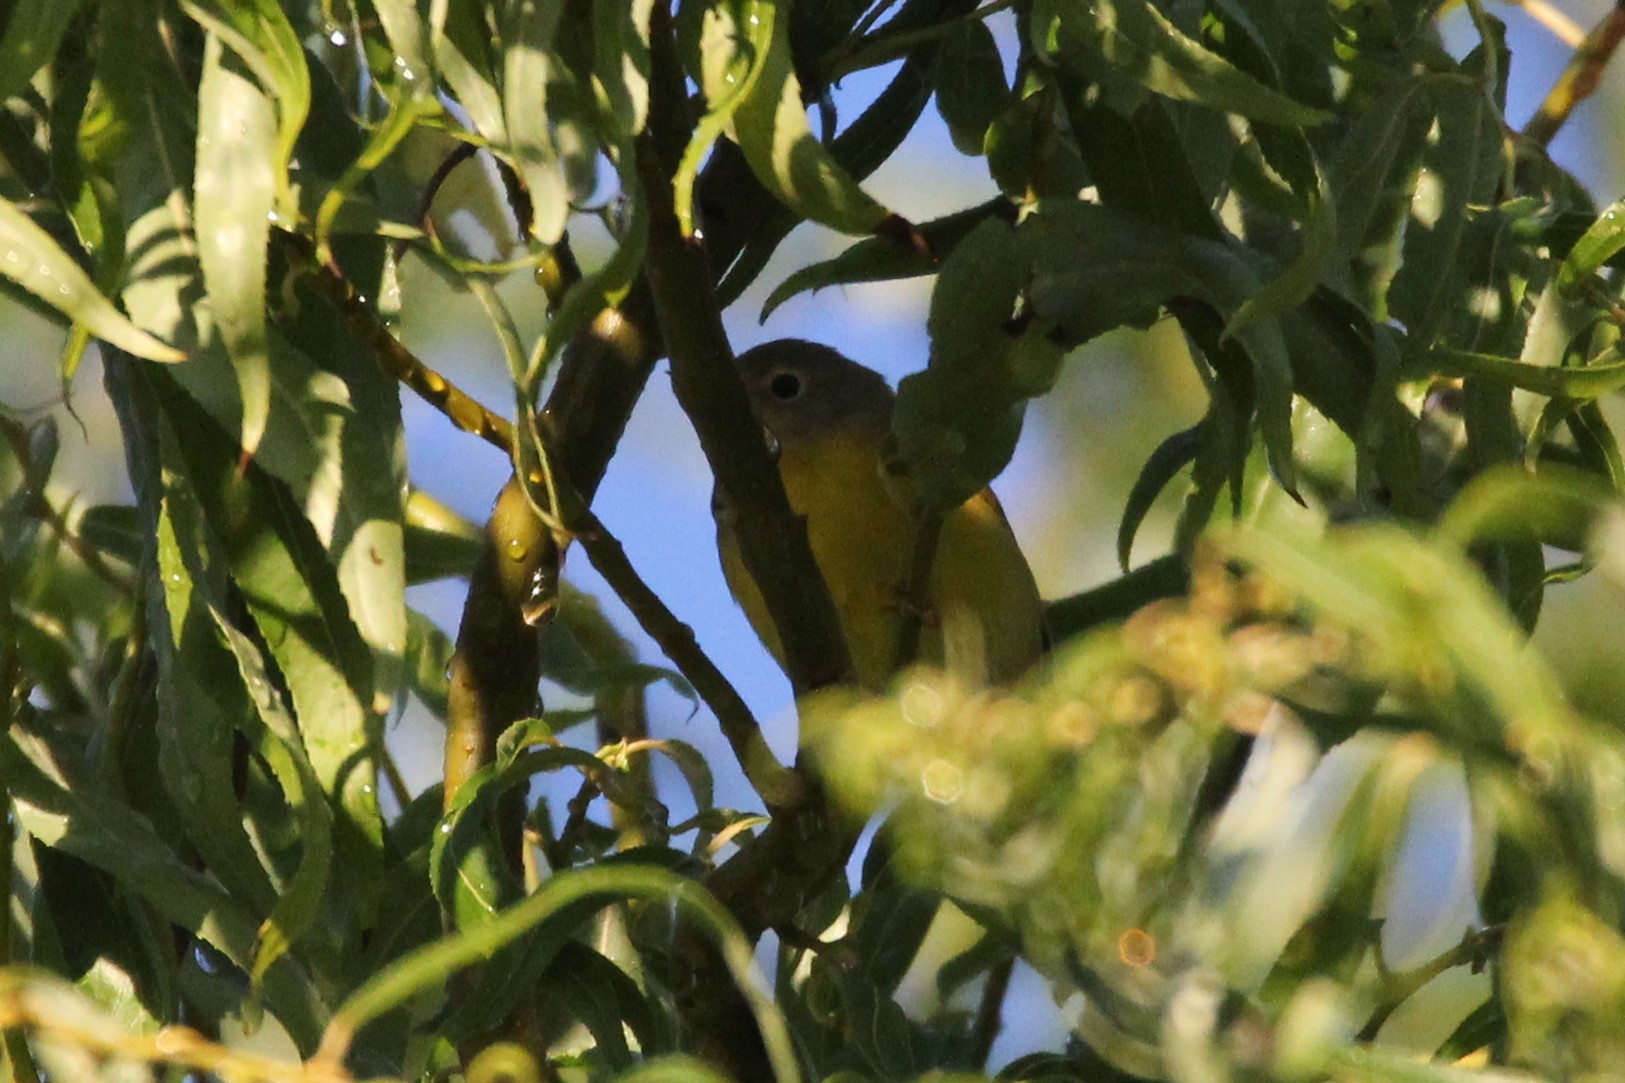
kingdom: Animalia
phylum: Chordata
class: Aves
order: Passeriformes
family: Parulidae
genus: Leiothlypis
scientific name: Leiothlypis ruficapilla
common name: Nashville warbler
